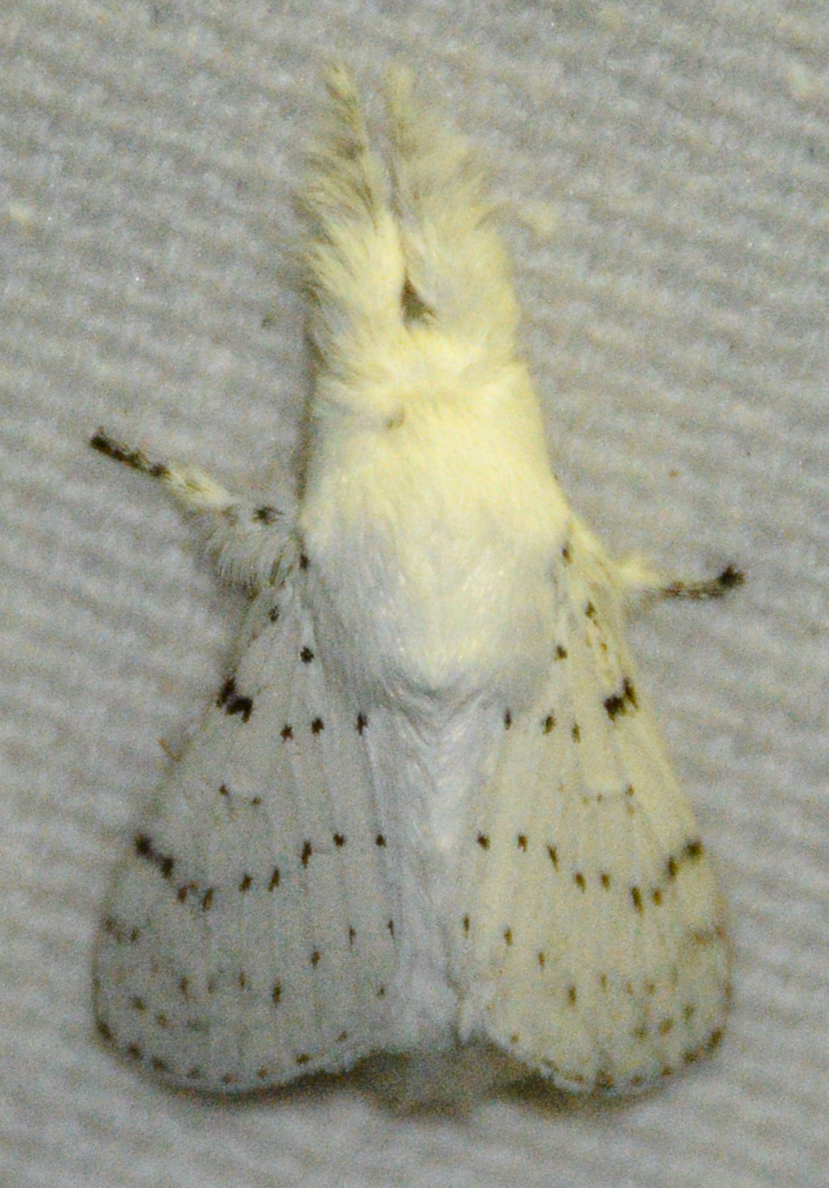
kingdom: Animalia
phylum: Arthropoda
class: Insecta
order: Lepidoptera
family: Lasiocampidae
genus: Artace
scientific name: Artace cribrarius
